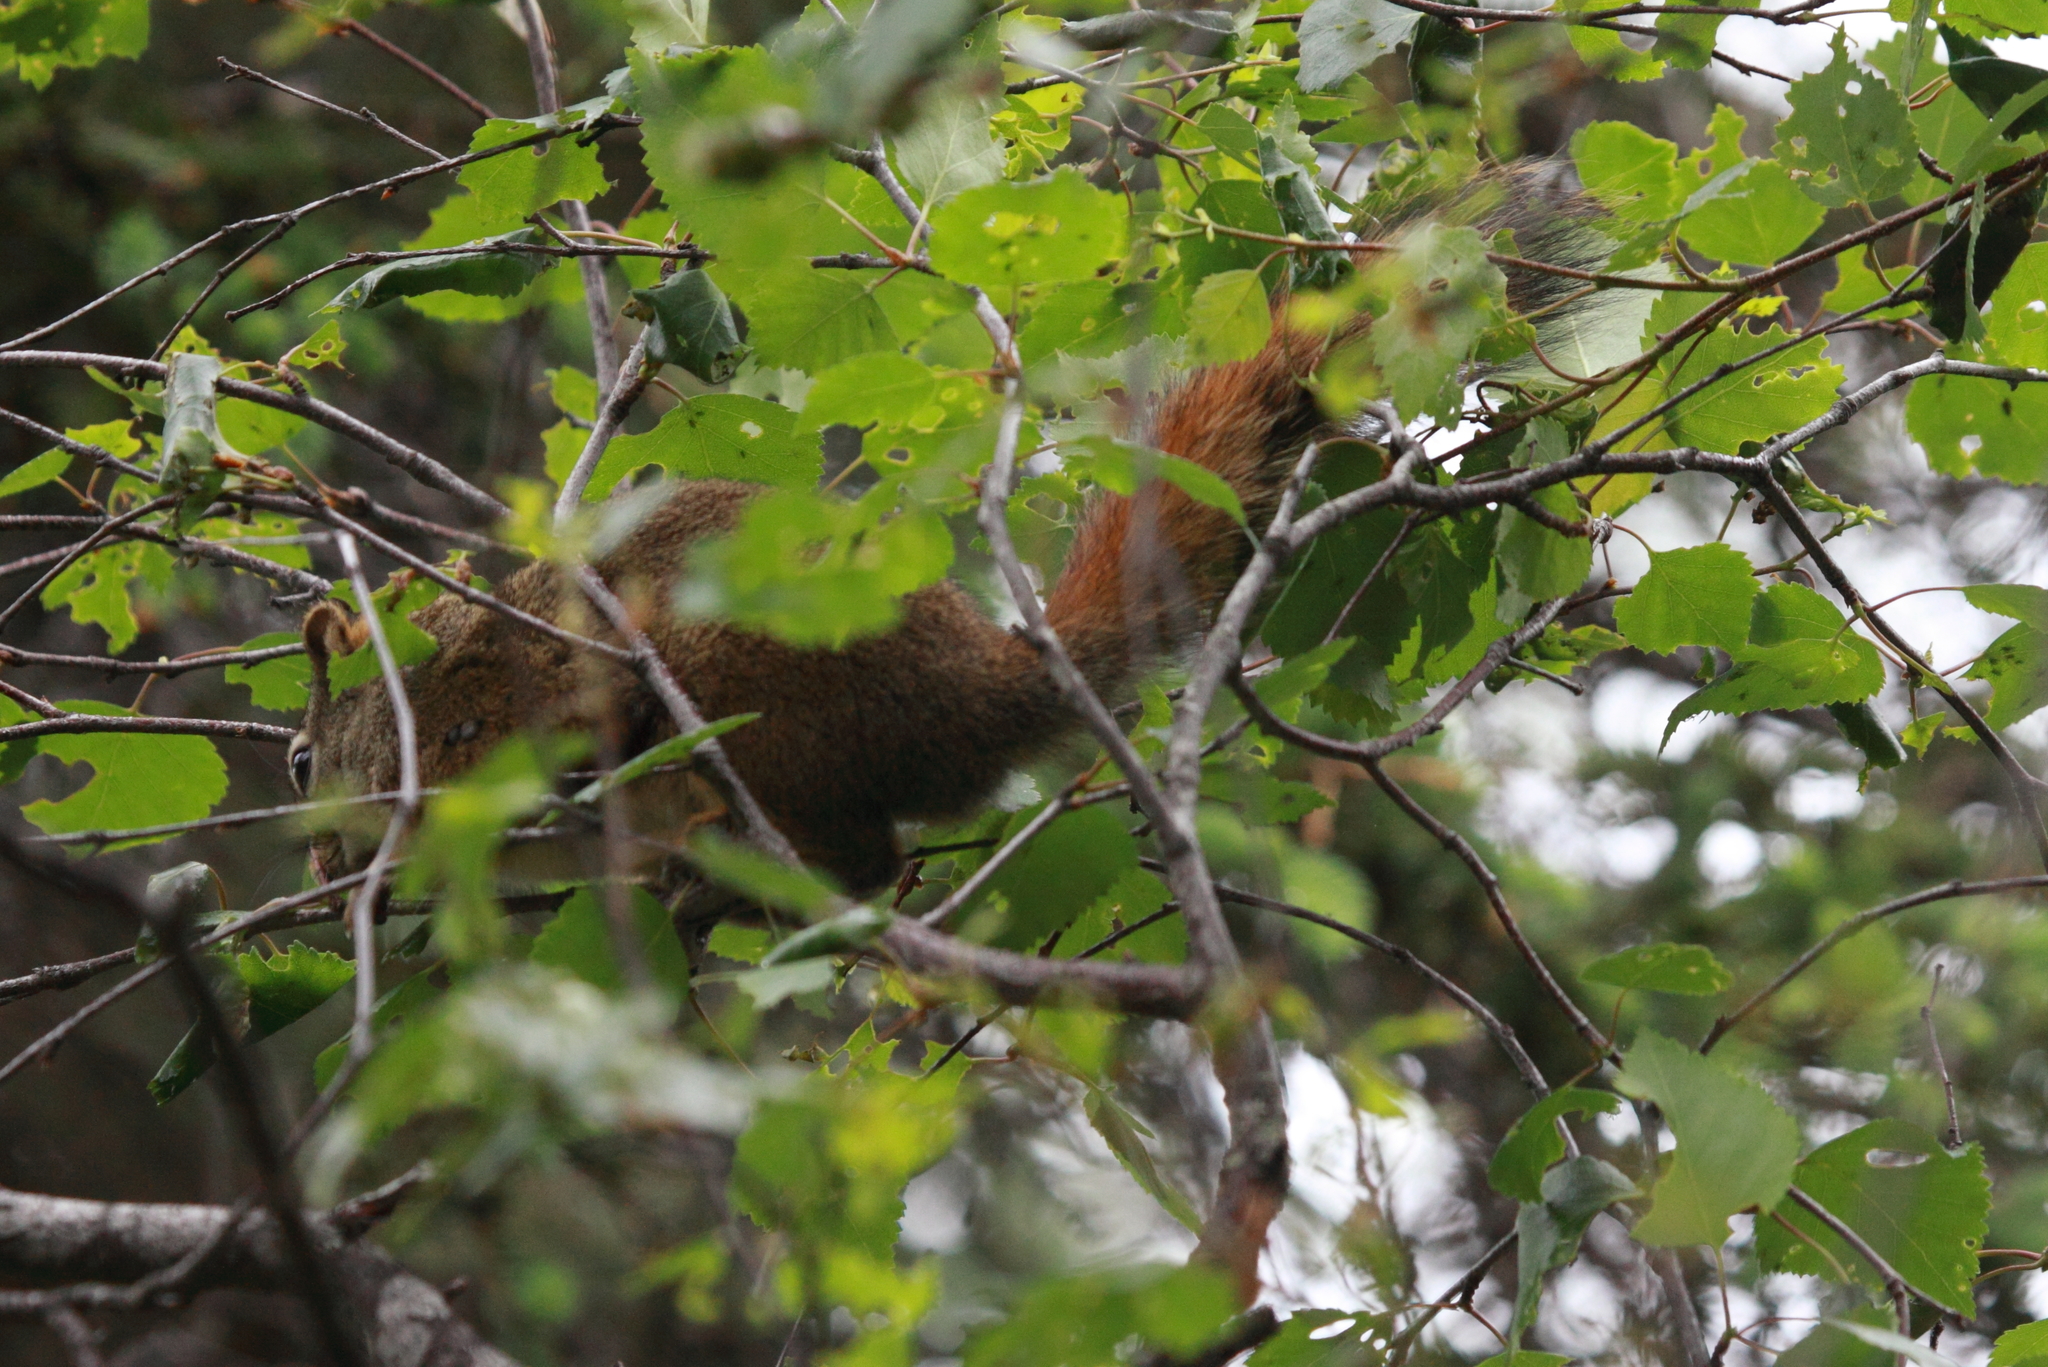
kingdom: Animalia
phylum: Chordata
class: Mammalia
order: Rodentia
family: Sciuridae
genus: Tamiasciurus
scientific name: Tamiasciurus hudsonicus
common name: Red squirrel
